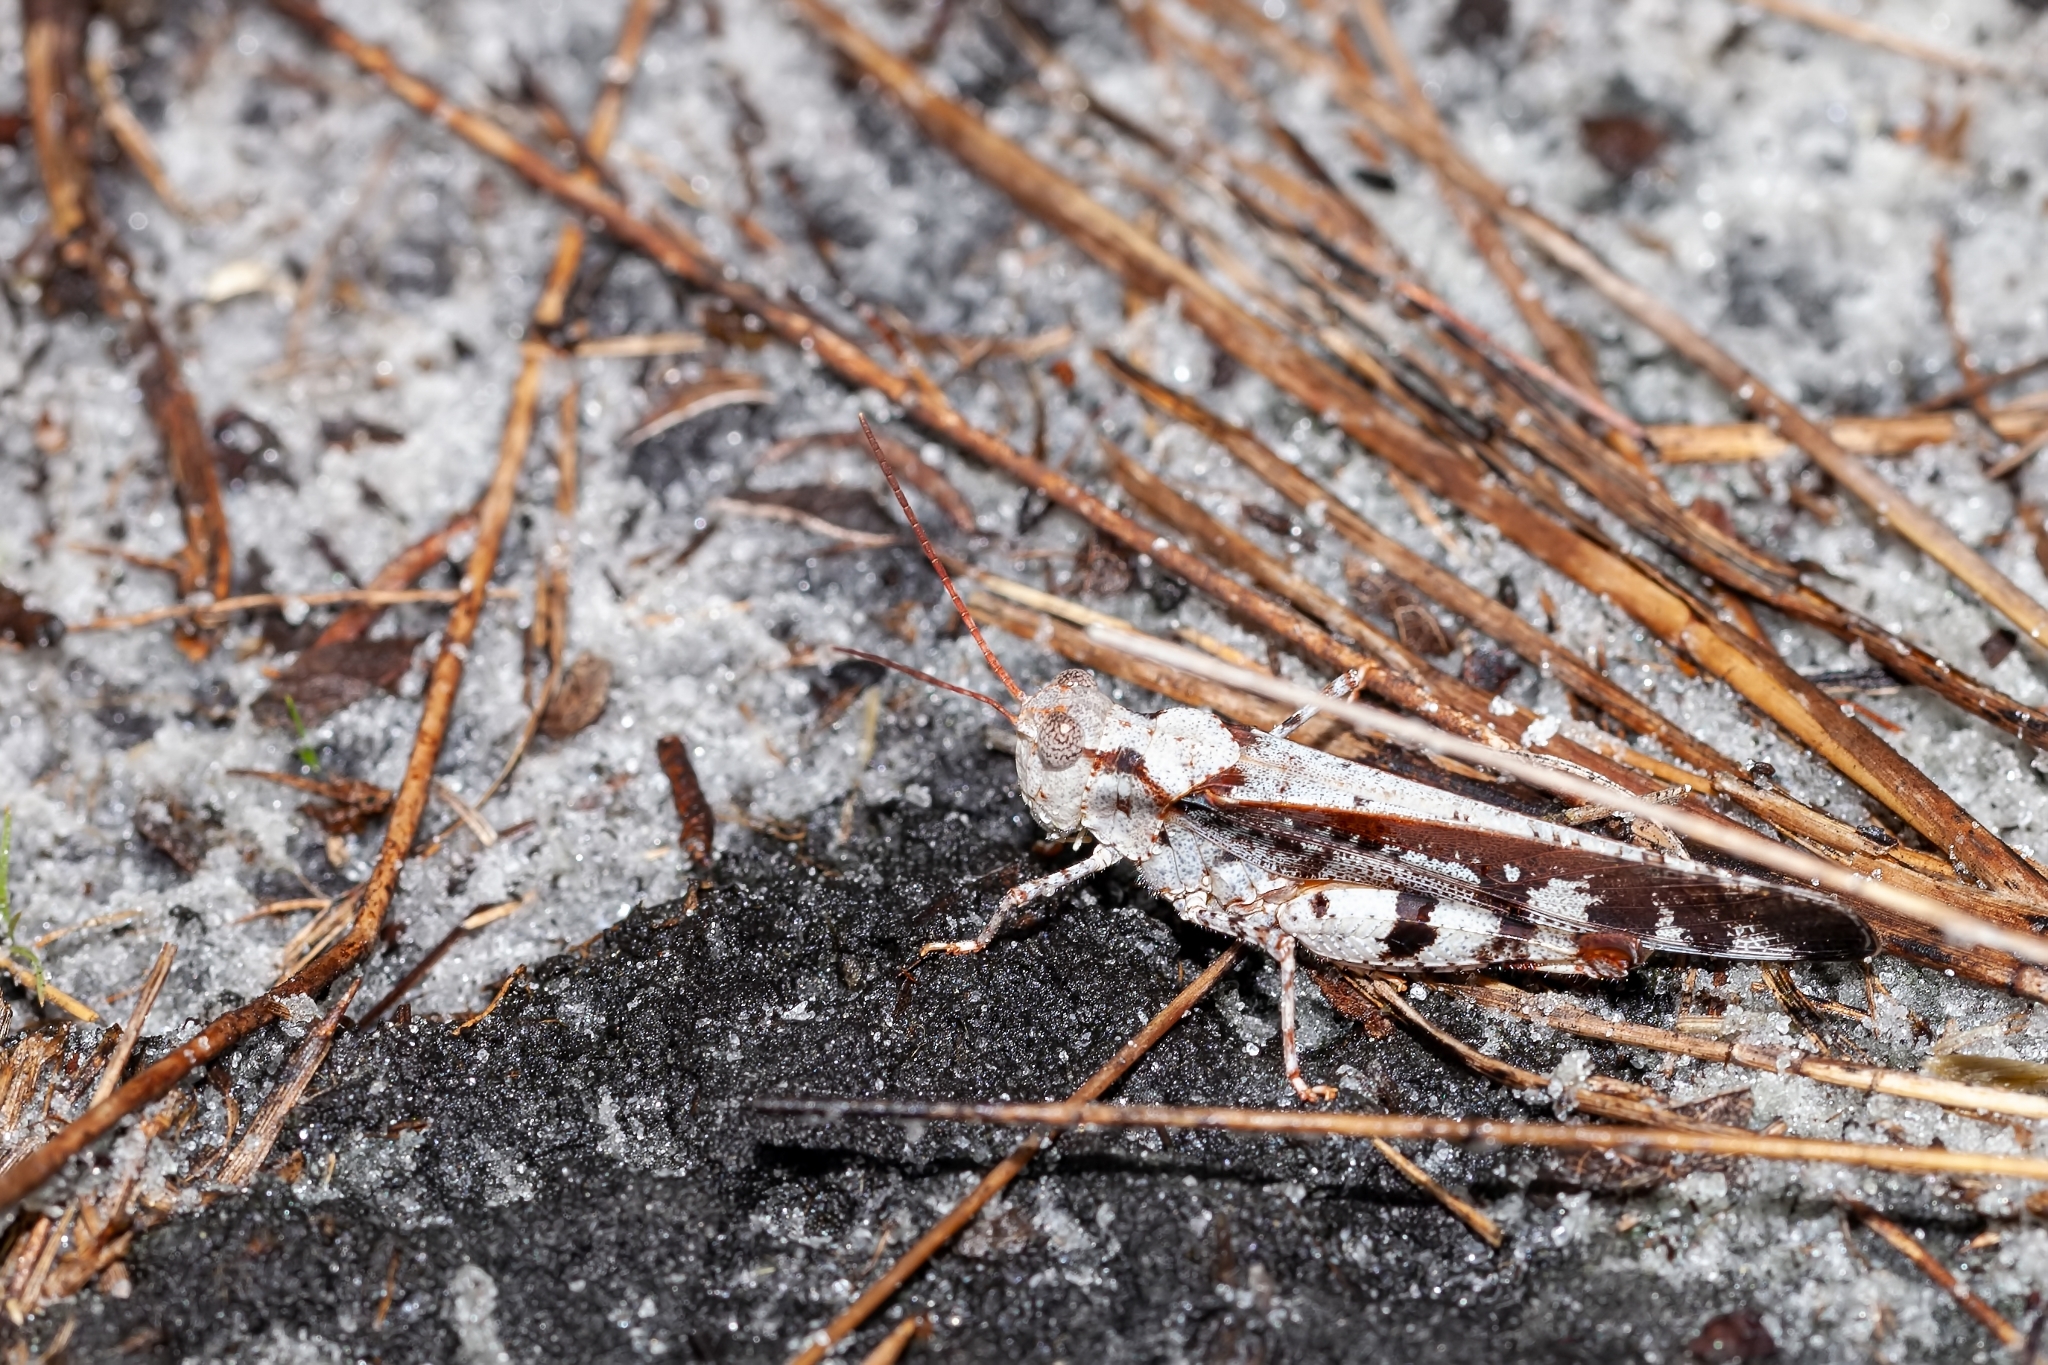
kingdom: Animalia
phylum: Arthropoda
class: Insecta
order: Orthoptera
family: Acrididae
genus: Spharagemon
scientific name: Spharagemon marmoratum
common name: Marbled grasshopper
